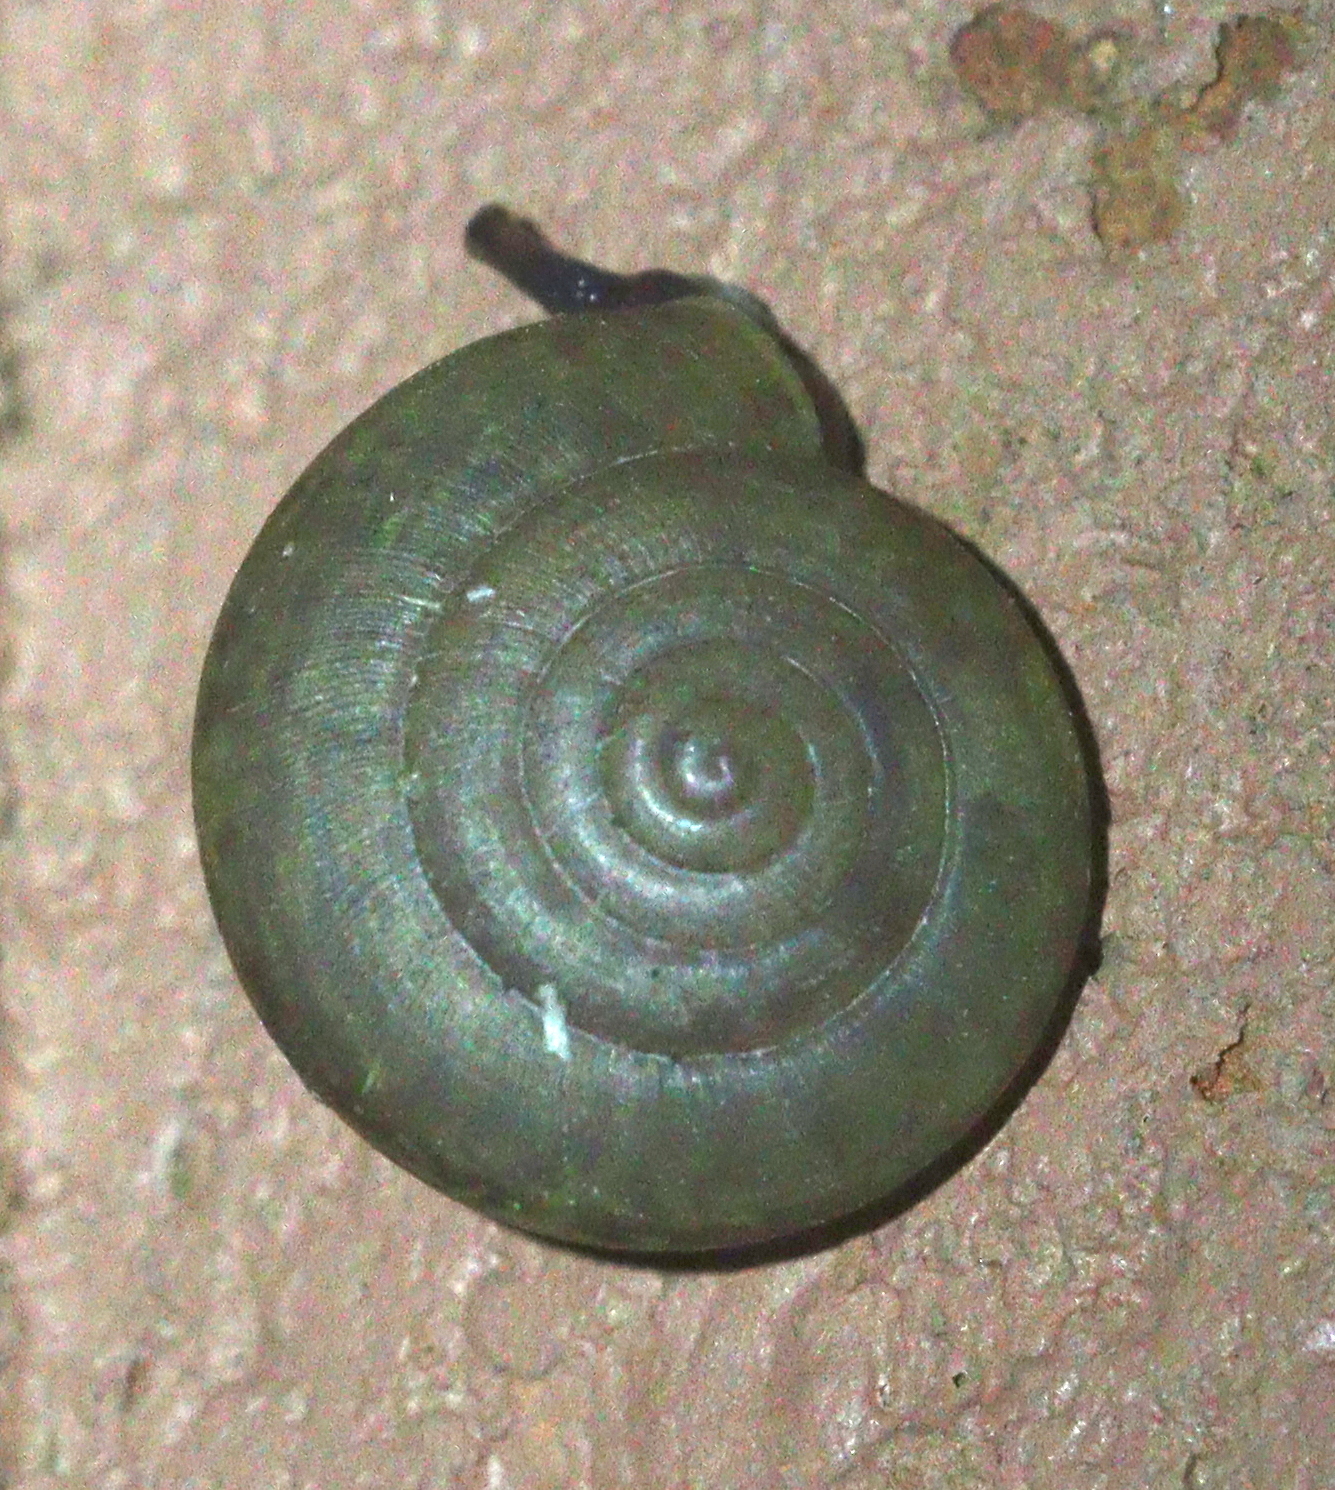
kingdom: Animalia
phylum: Mollusca
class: Gastropoda
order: Stylommatophora
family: Ariophantidae
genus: Sarika
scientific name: Sarika siamensis
